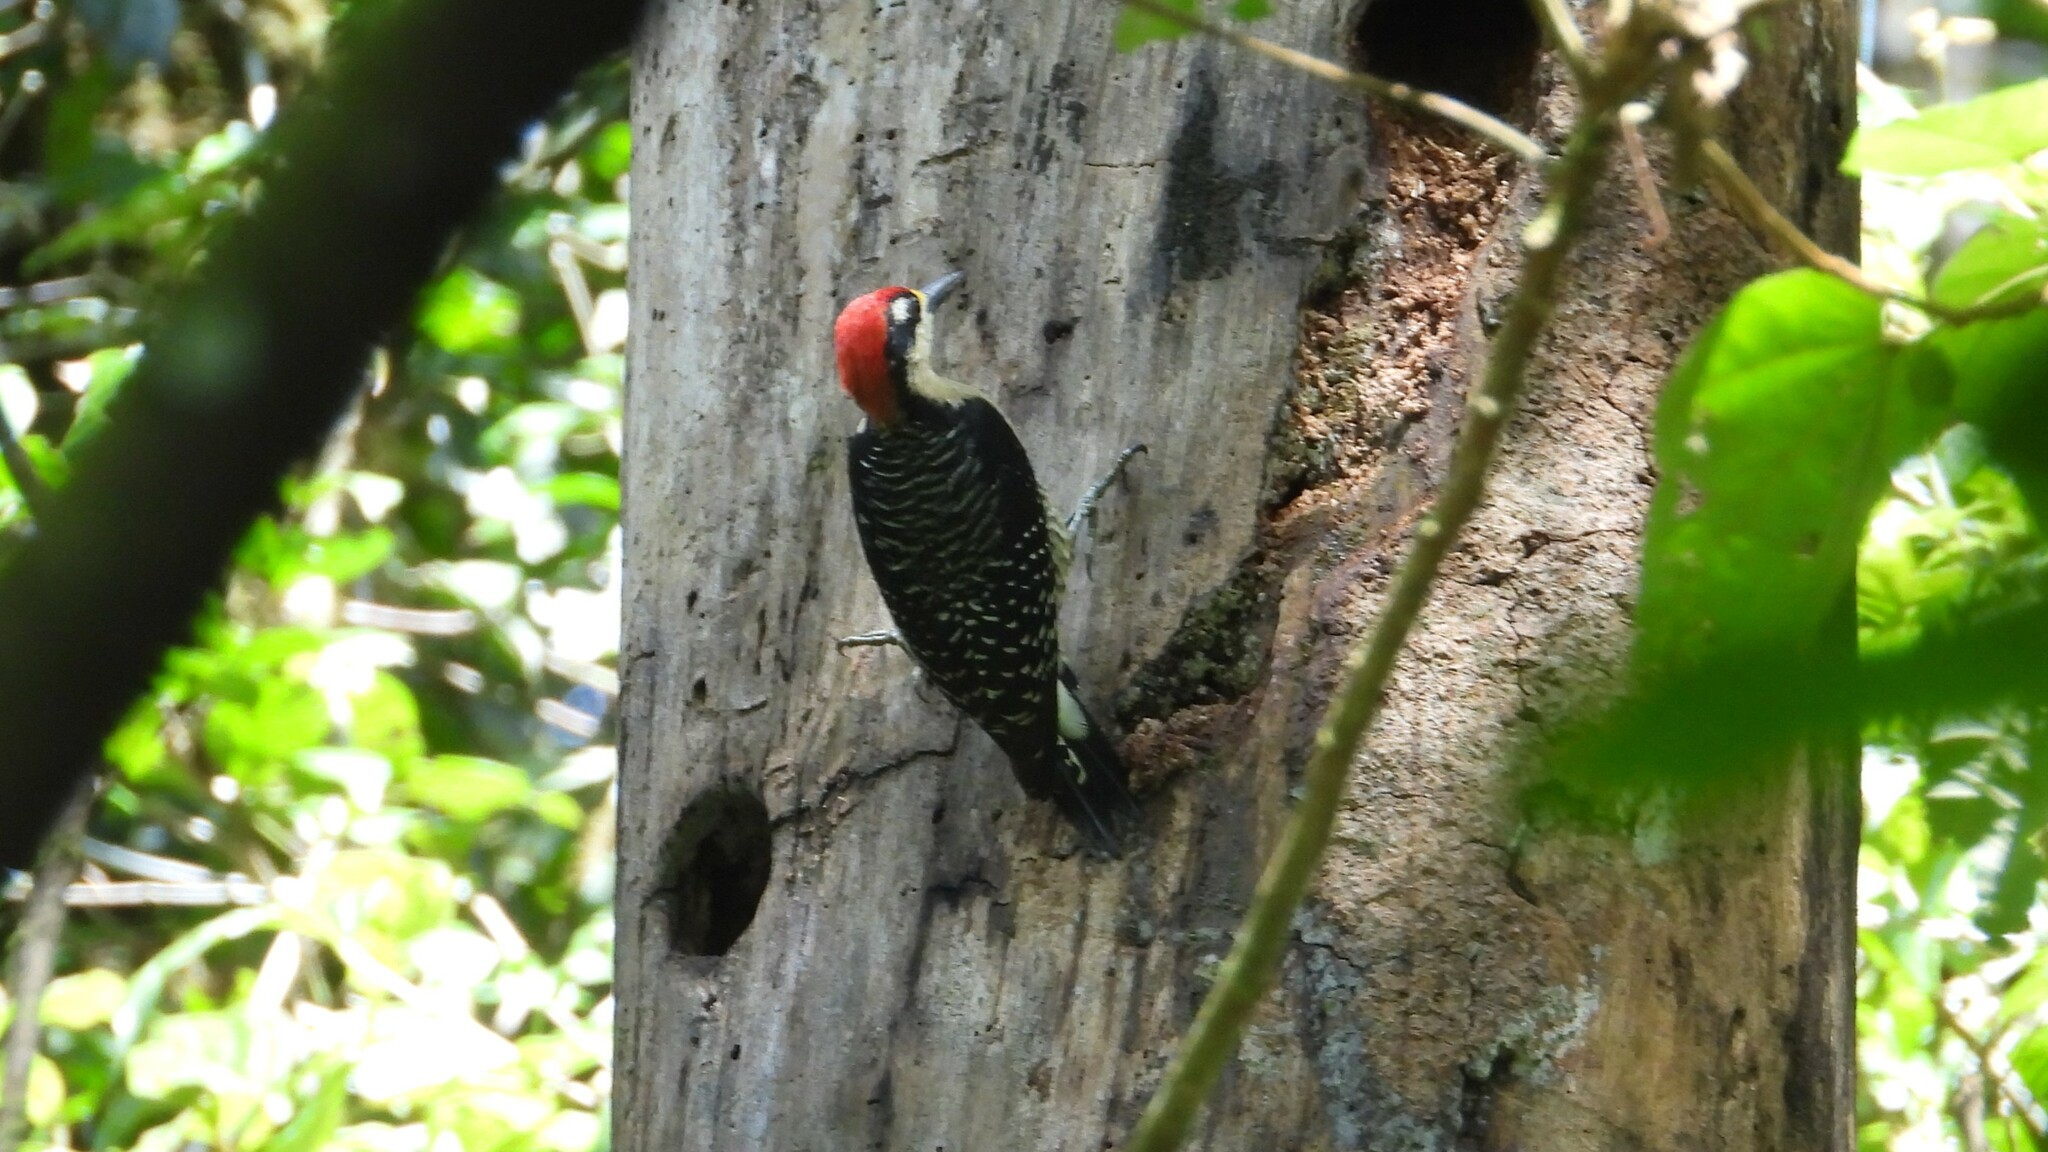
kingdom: Animalia
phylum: Chordata
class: Aves
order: Piciformes
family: Picidae
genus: Melanerpes
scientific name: Melanerpes pucherani
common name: Black-cheeked woodpecker
